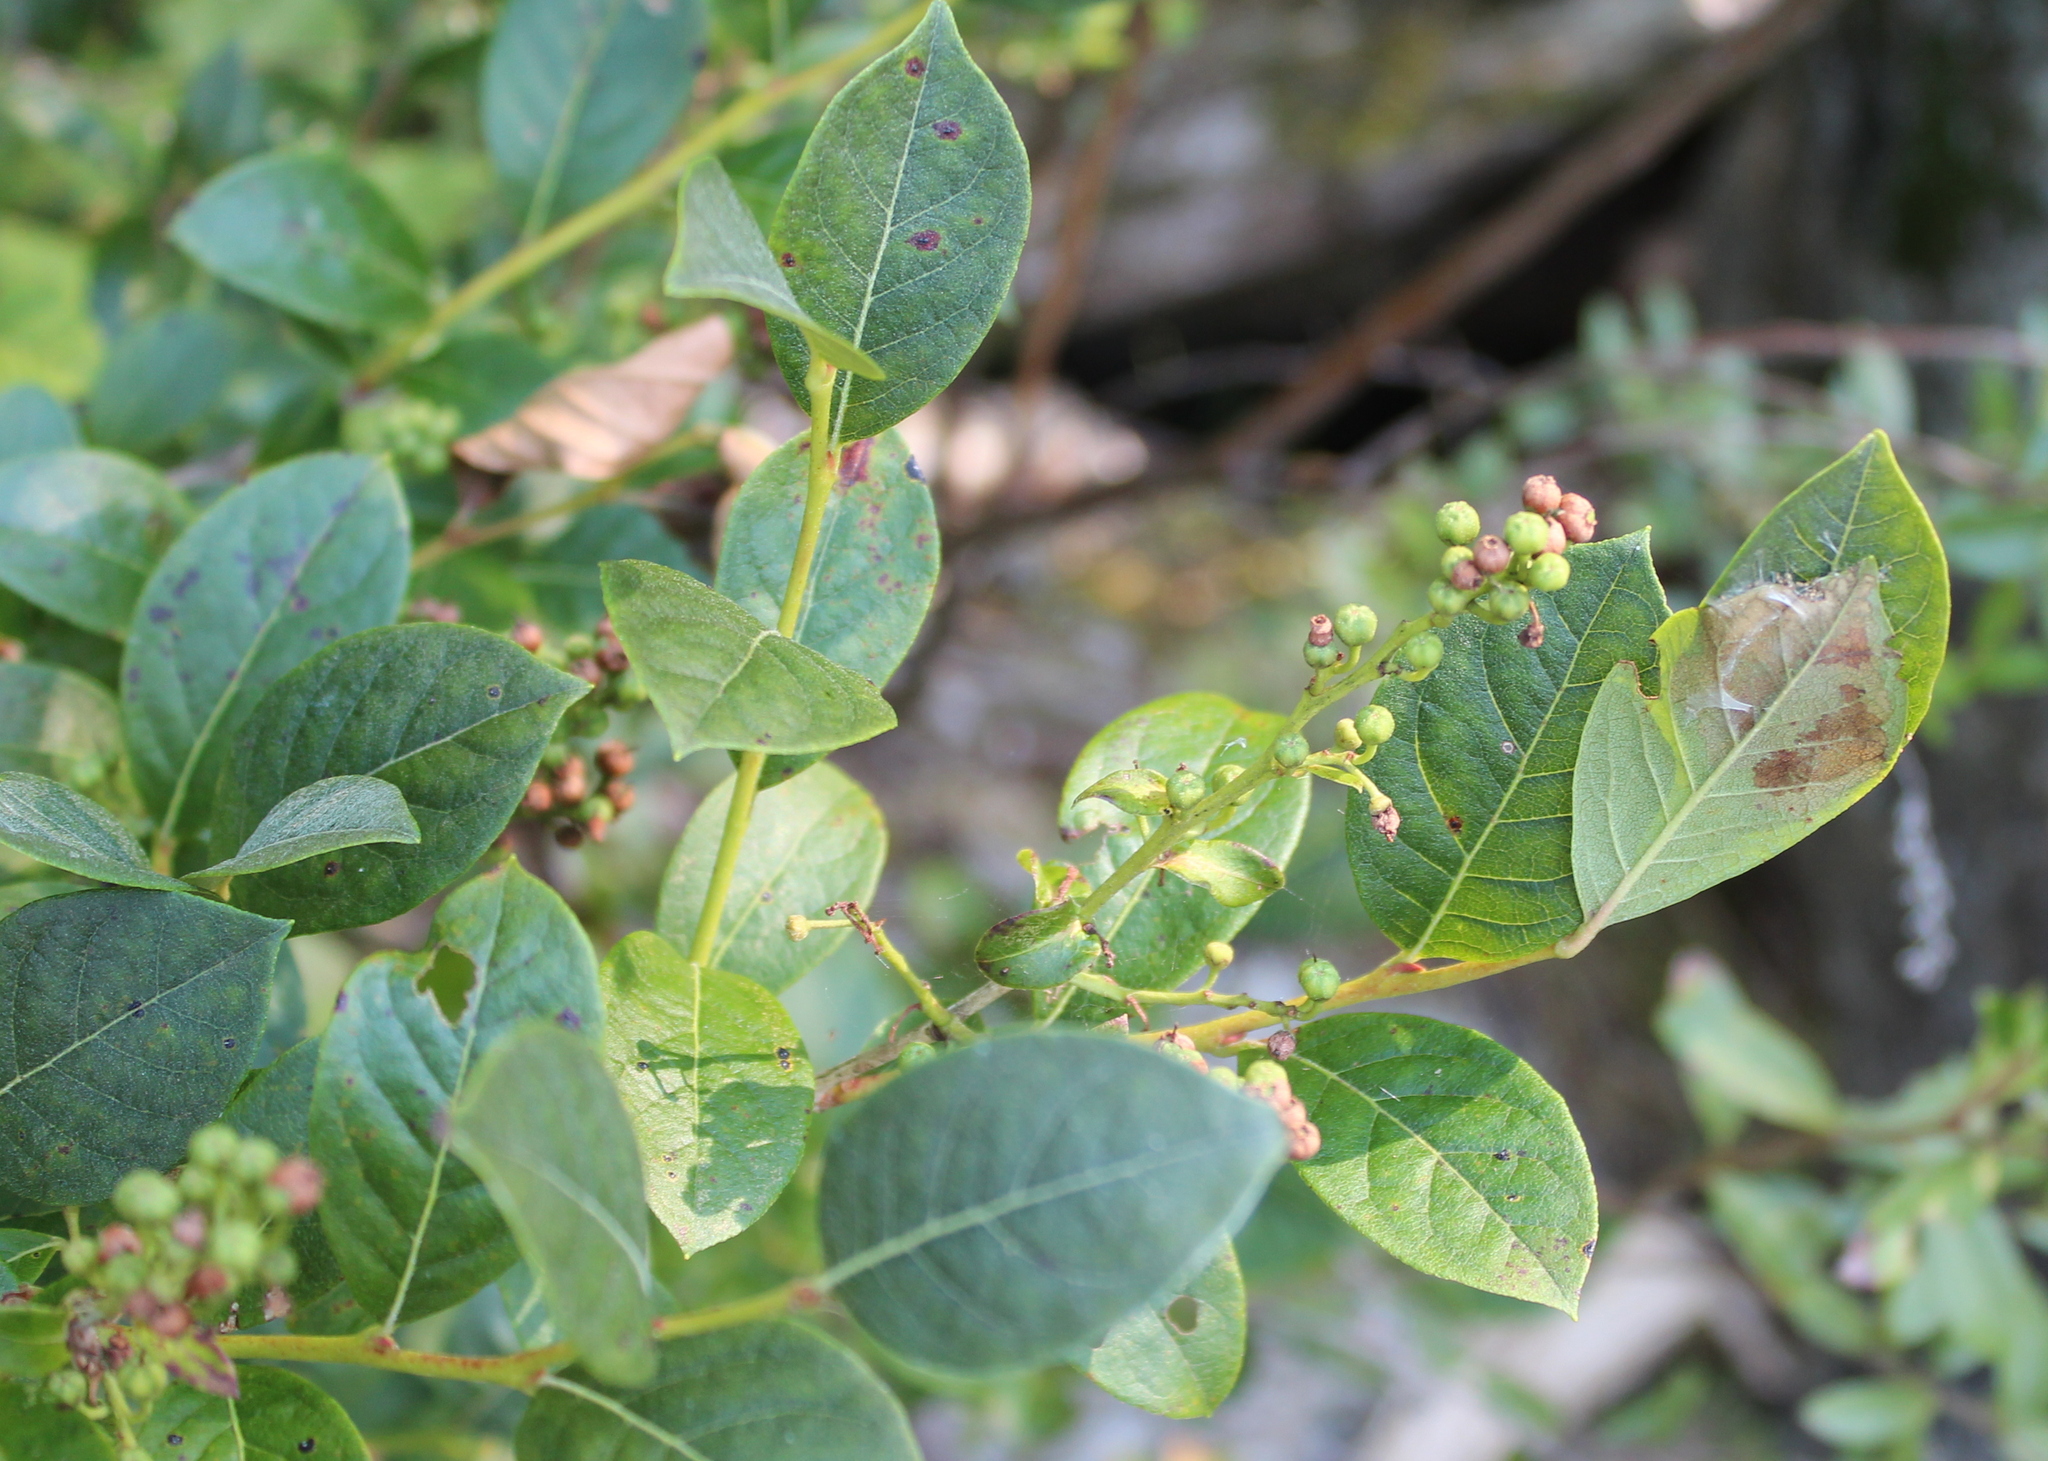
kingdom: Plantae
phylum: Tracheophyta
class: Magnoliopsida
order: Ericales
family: Ericaceae
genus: Lyonia
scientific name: Lyonia ligustrina
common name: Maleberry
